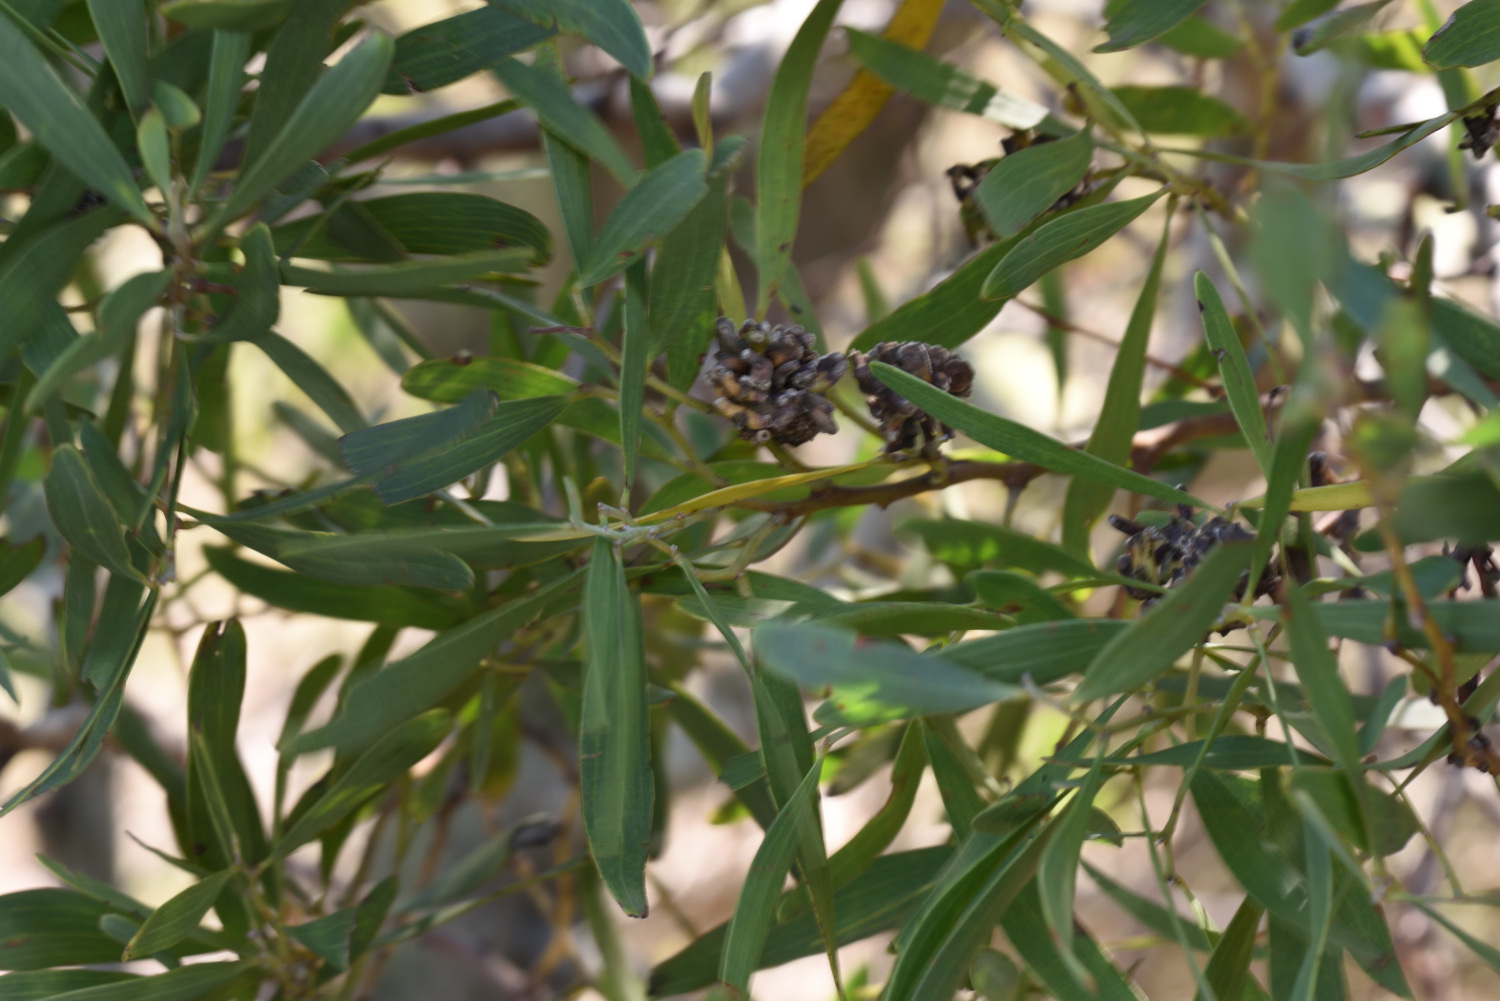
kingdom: Plantae
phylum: Tracheophyta
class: Magnoliopsida
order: Fabales
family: Fabaceae
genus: Acacia
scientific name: Acacia cyclops
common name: Coastal wattle
